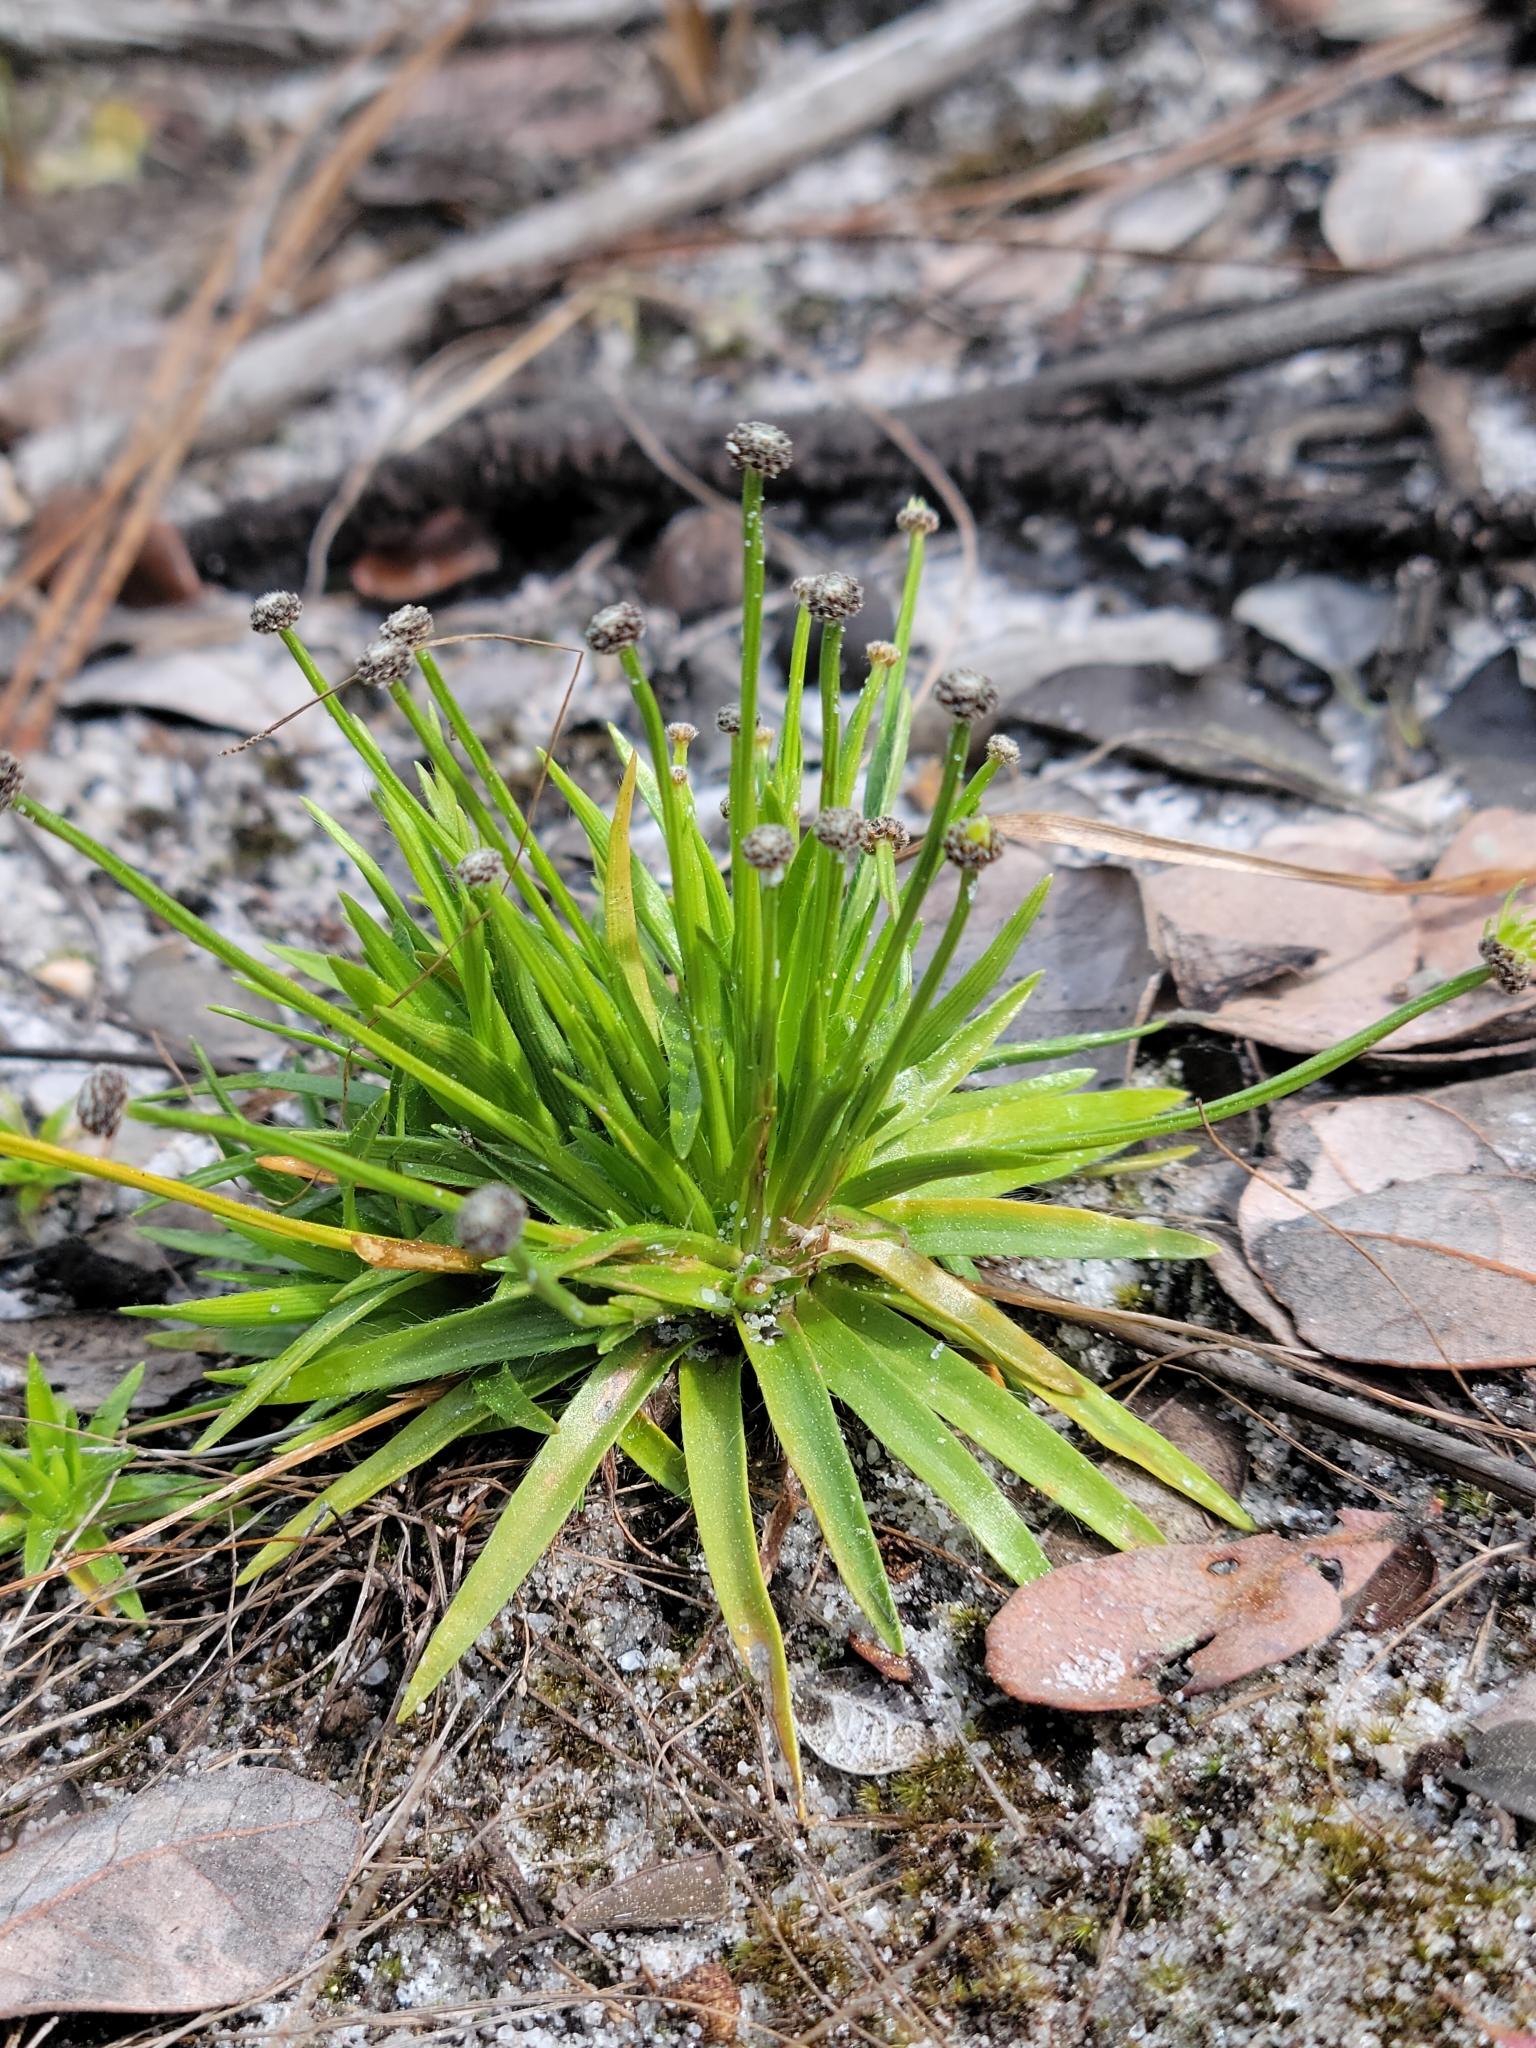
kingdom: Plantae
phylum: Tracheophyta
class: Liliopsida
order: Poales
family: Eriocaulaceae
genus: Paepalanthus
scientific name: Paepalanthus engleri
